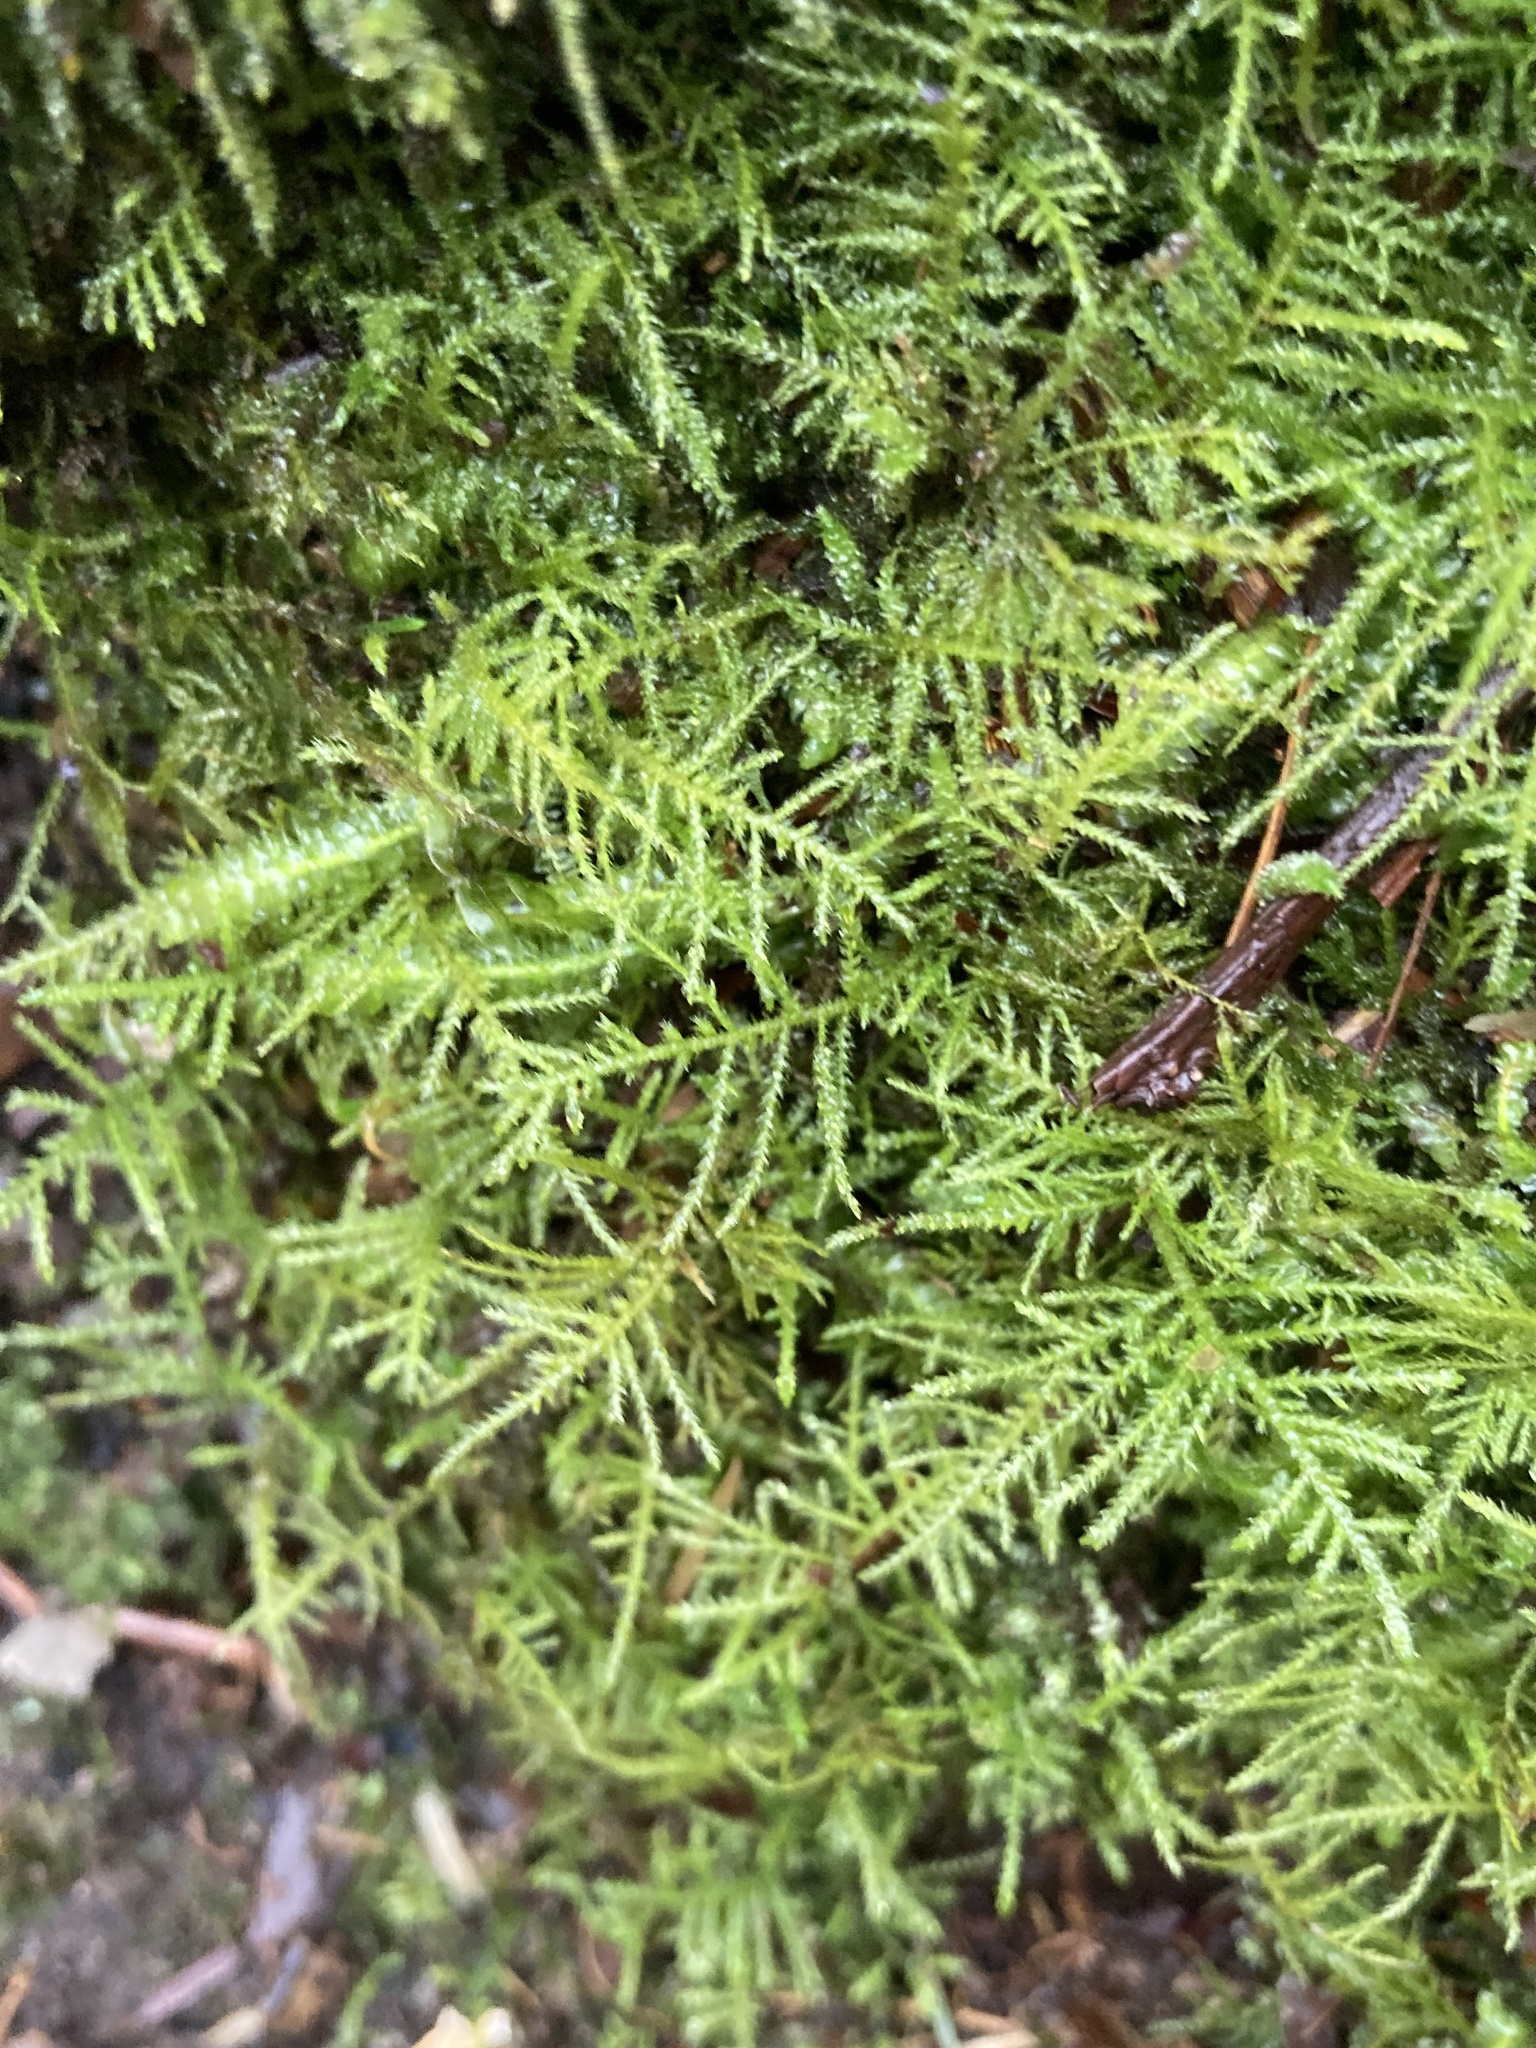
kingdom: Plantae
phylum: Bryophyta
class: Bryopsida
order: Hypnales
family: Brachytheciaceae
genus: Kindbergia
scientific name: Kindbergia praelonga
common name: Slender beaked moss
